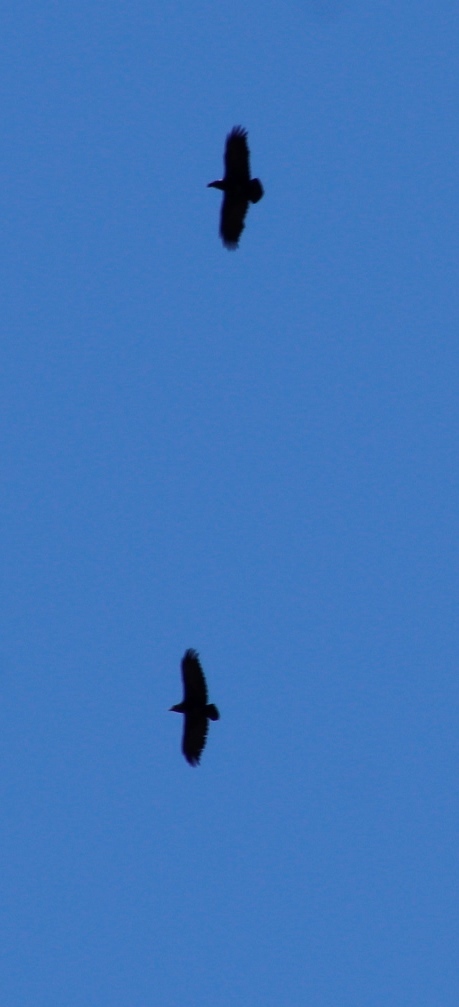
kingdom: Animalia
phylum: Chordata
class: Aves
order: Passeriformes
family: Corvidae
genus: Corvus
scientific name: Corvus albicollis
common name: White-necked raven
